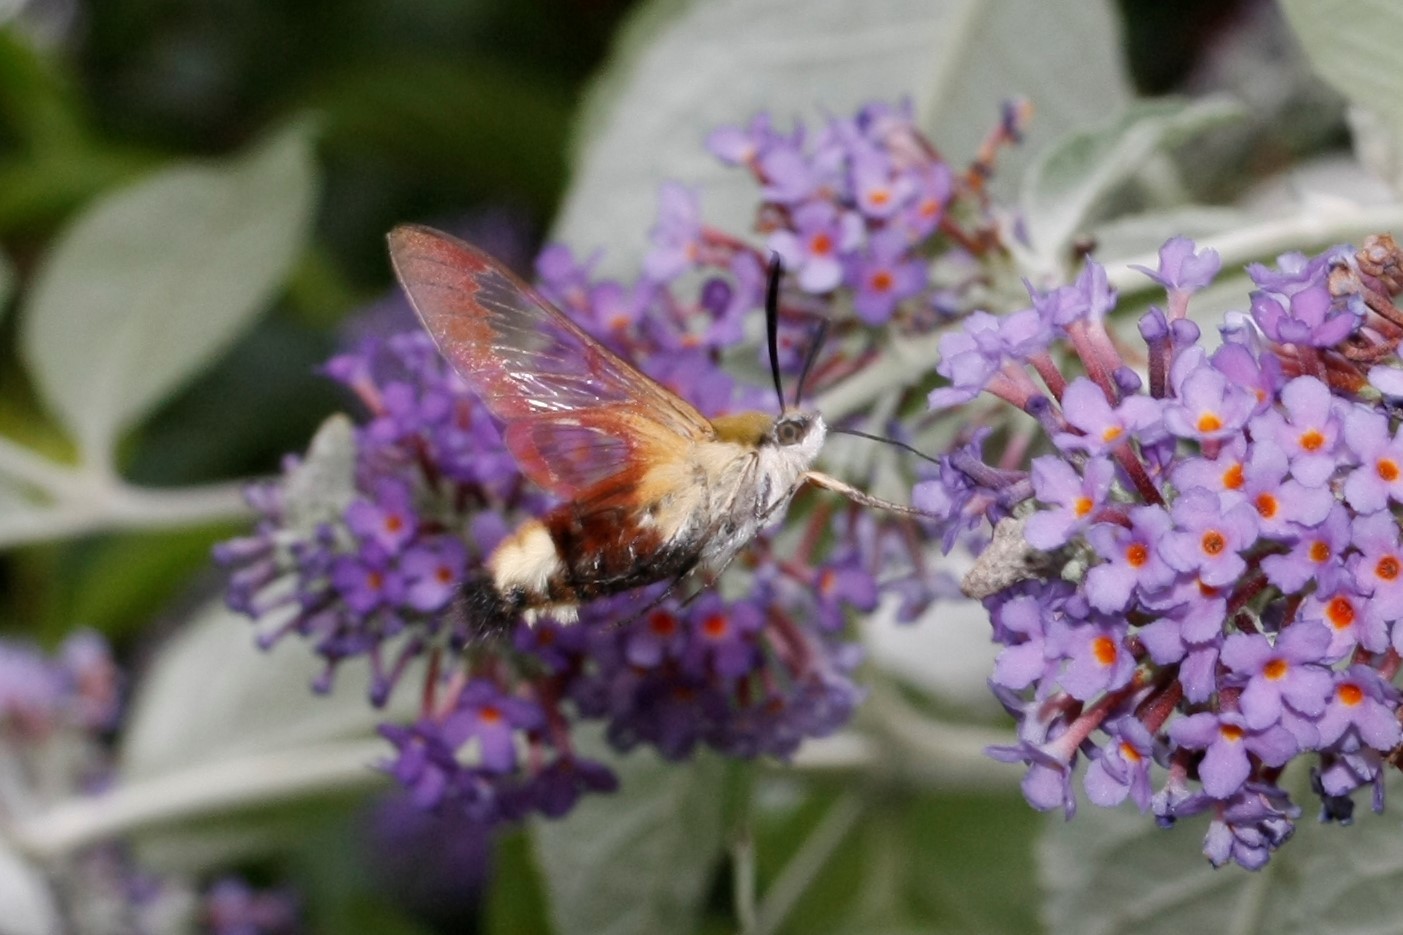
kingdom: Animalia
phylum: Arthropoda
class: Insecta
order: Lepidoptera
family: Sphingidae
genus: Hemaris
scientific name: Hemaris fuciformis
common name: Broad-bordered bee hawk-moth
